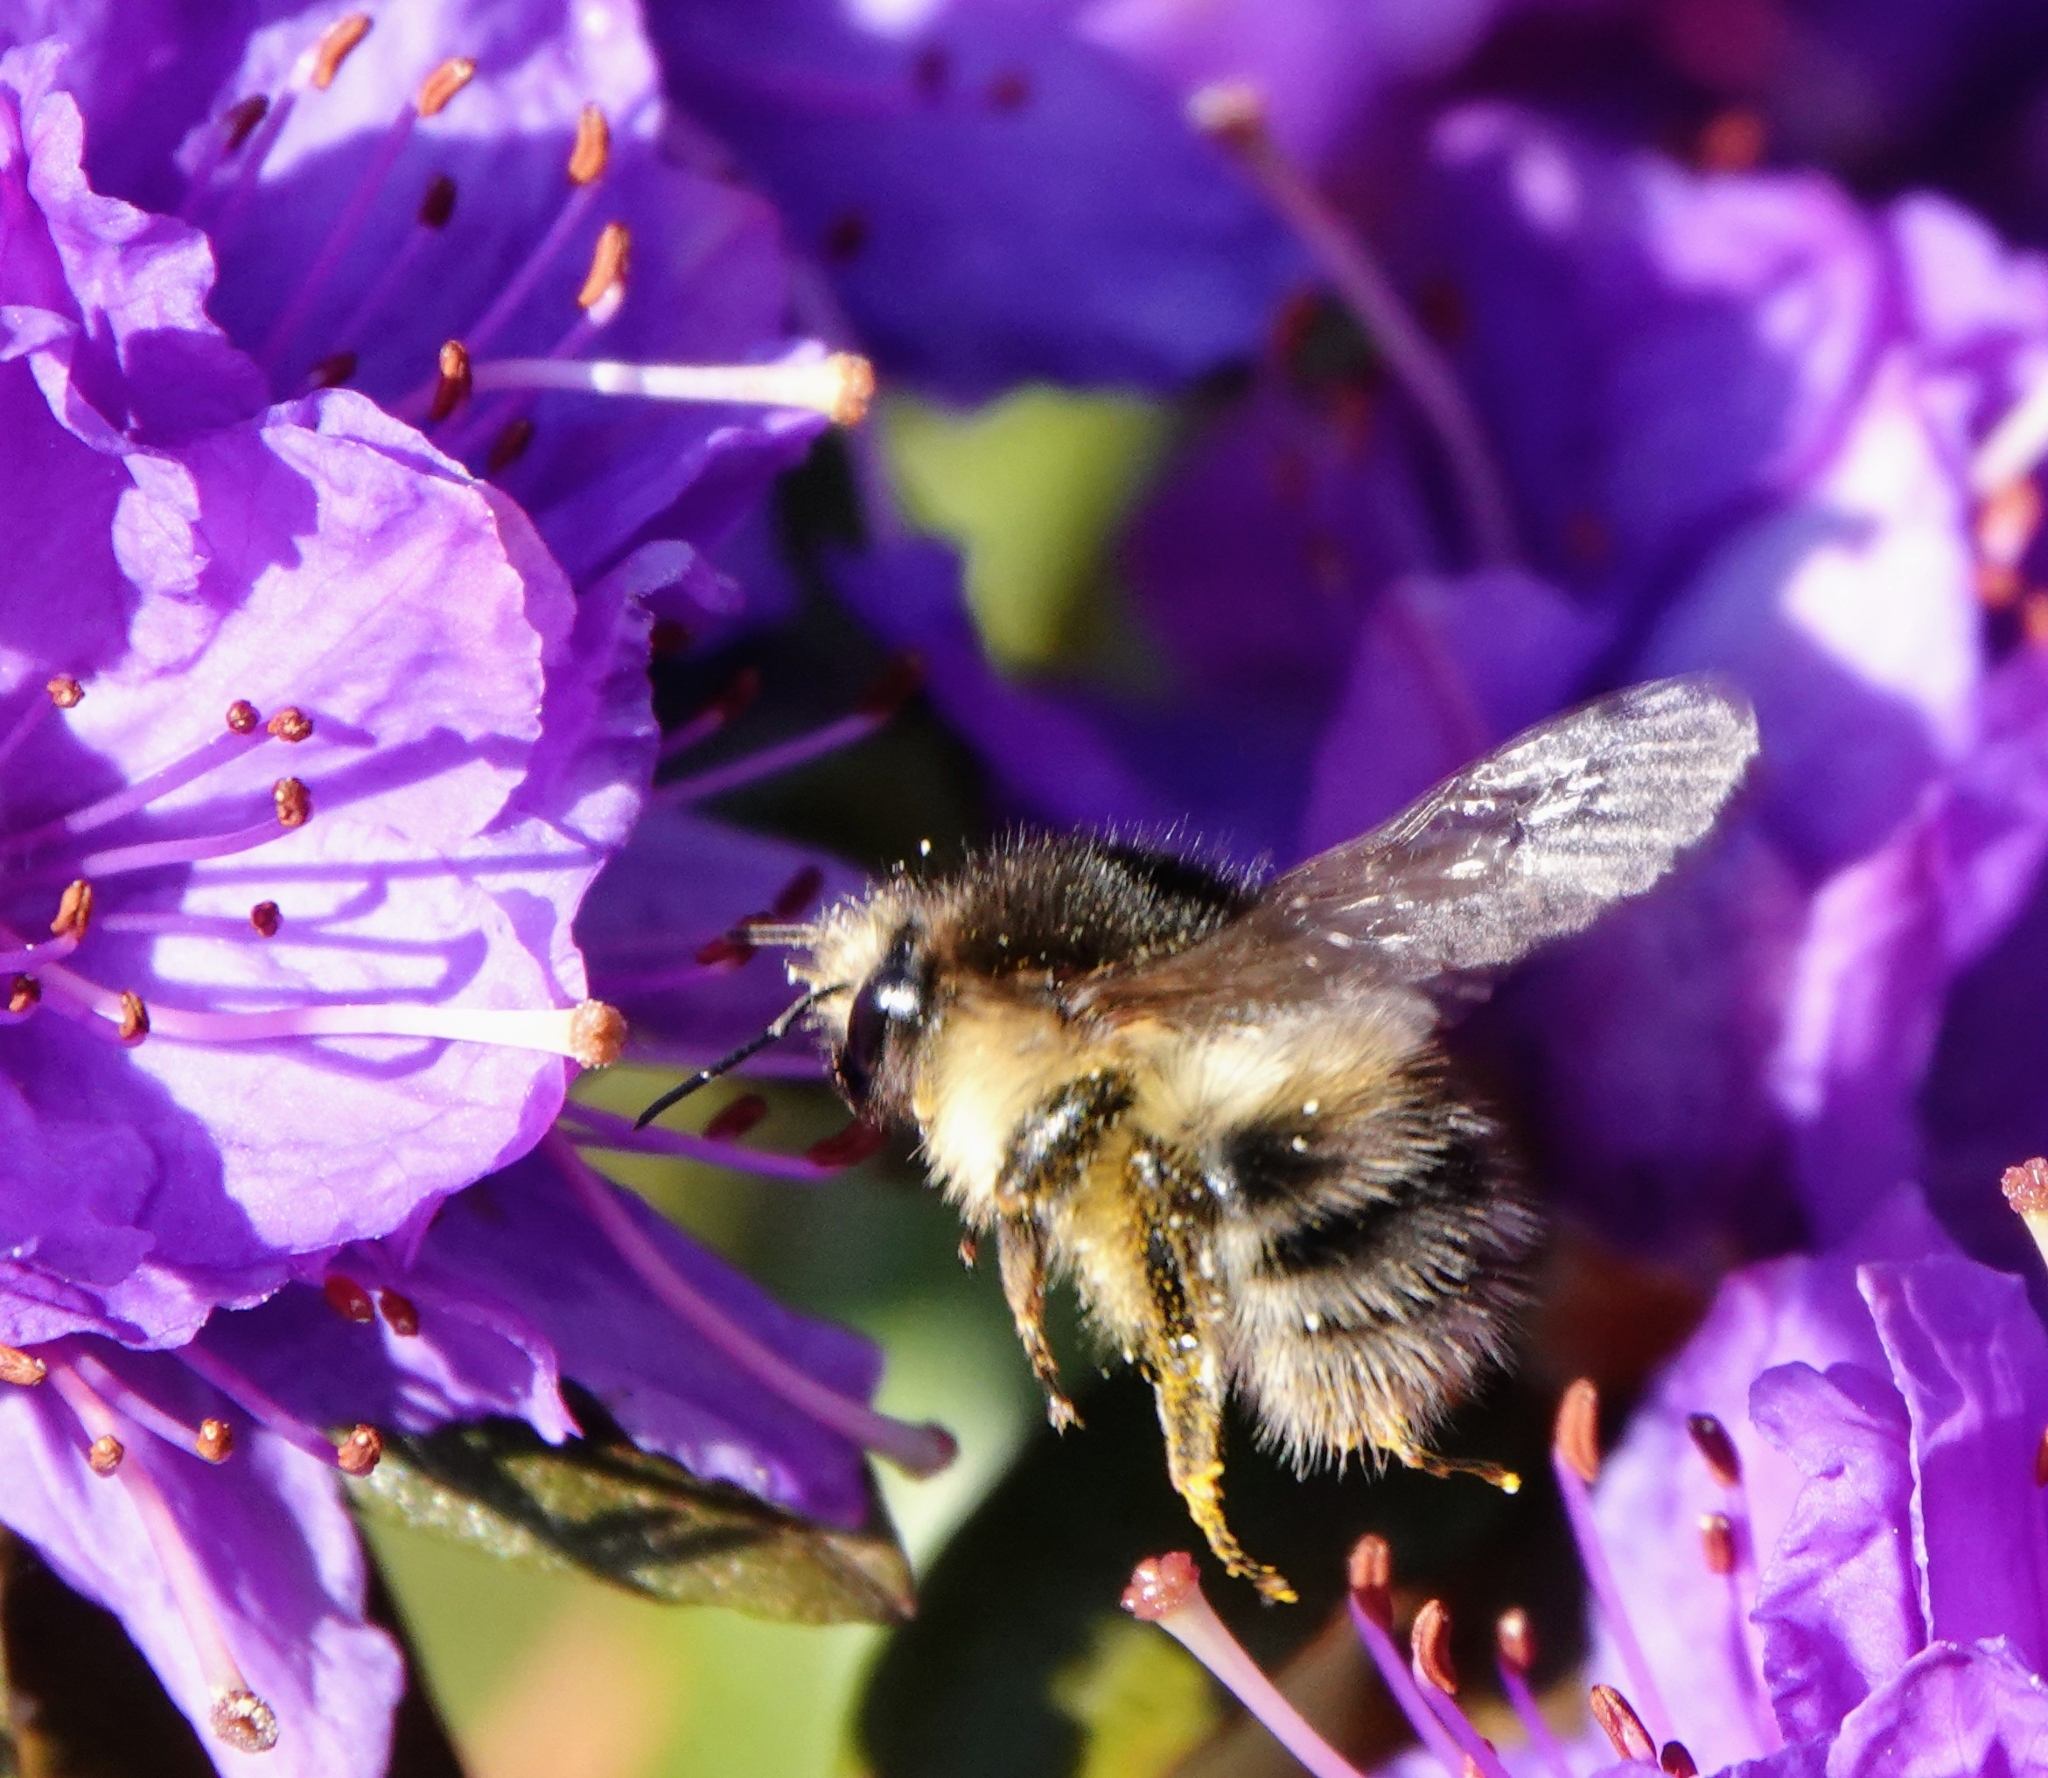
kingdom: Animalia
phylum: Arthropoda
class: Insecta
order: Hymenoptera
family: Apidae
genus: Bombus
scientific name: Bombus pascuorum
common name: Common carder bee
